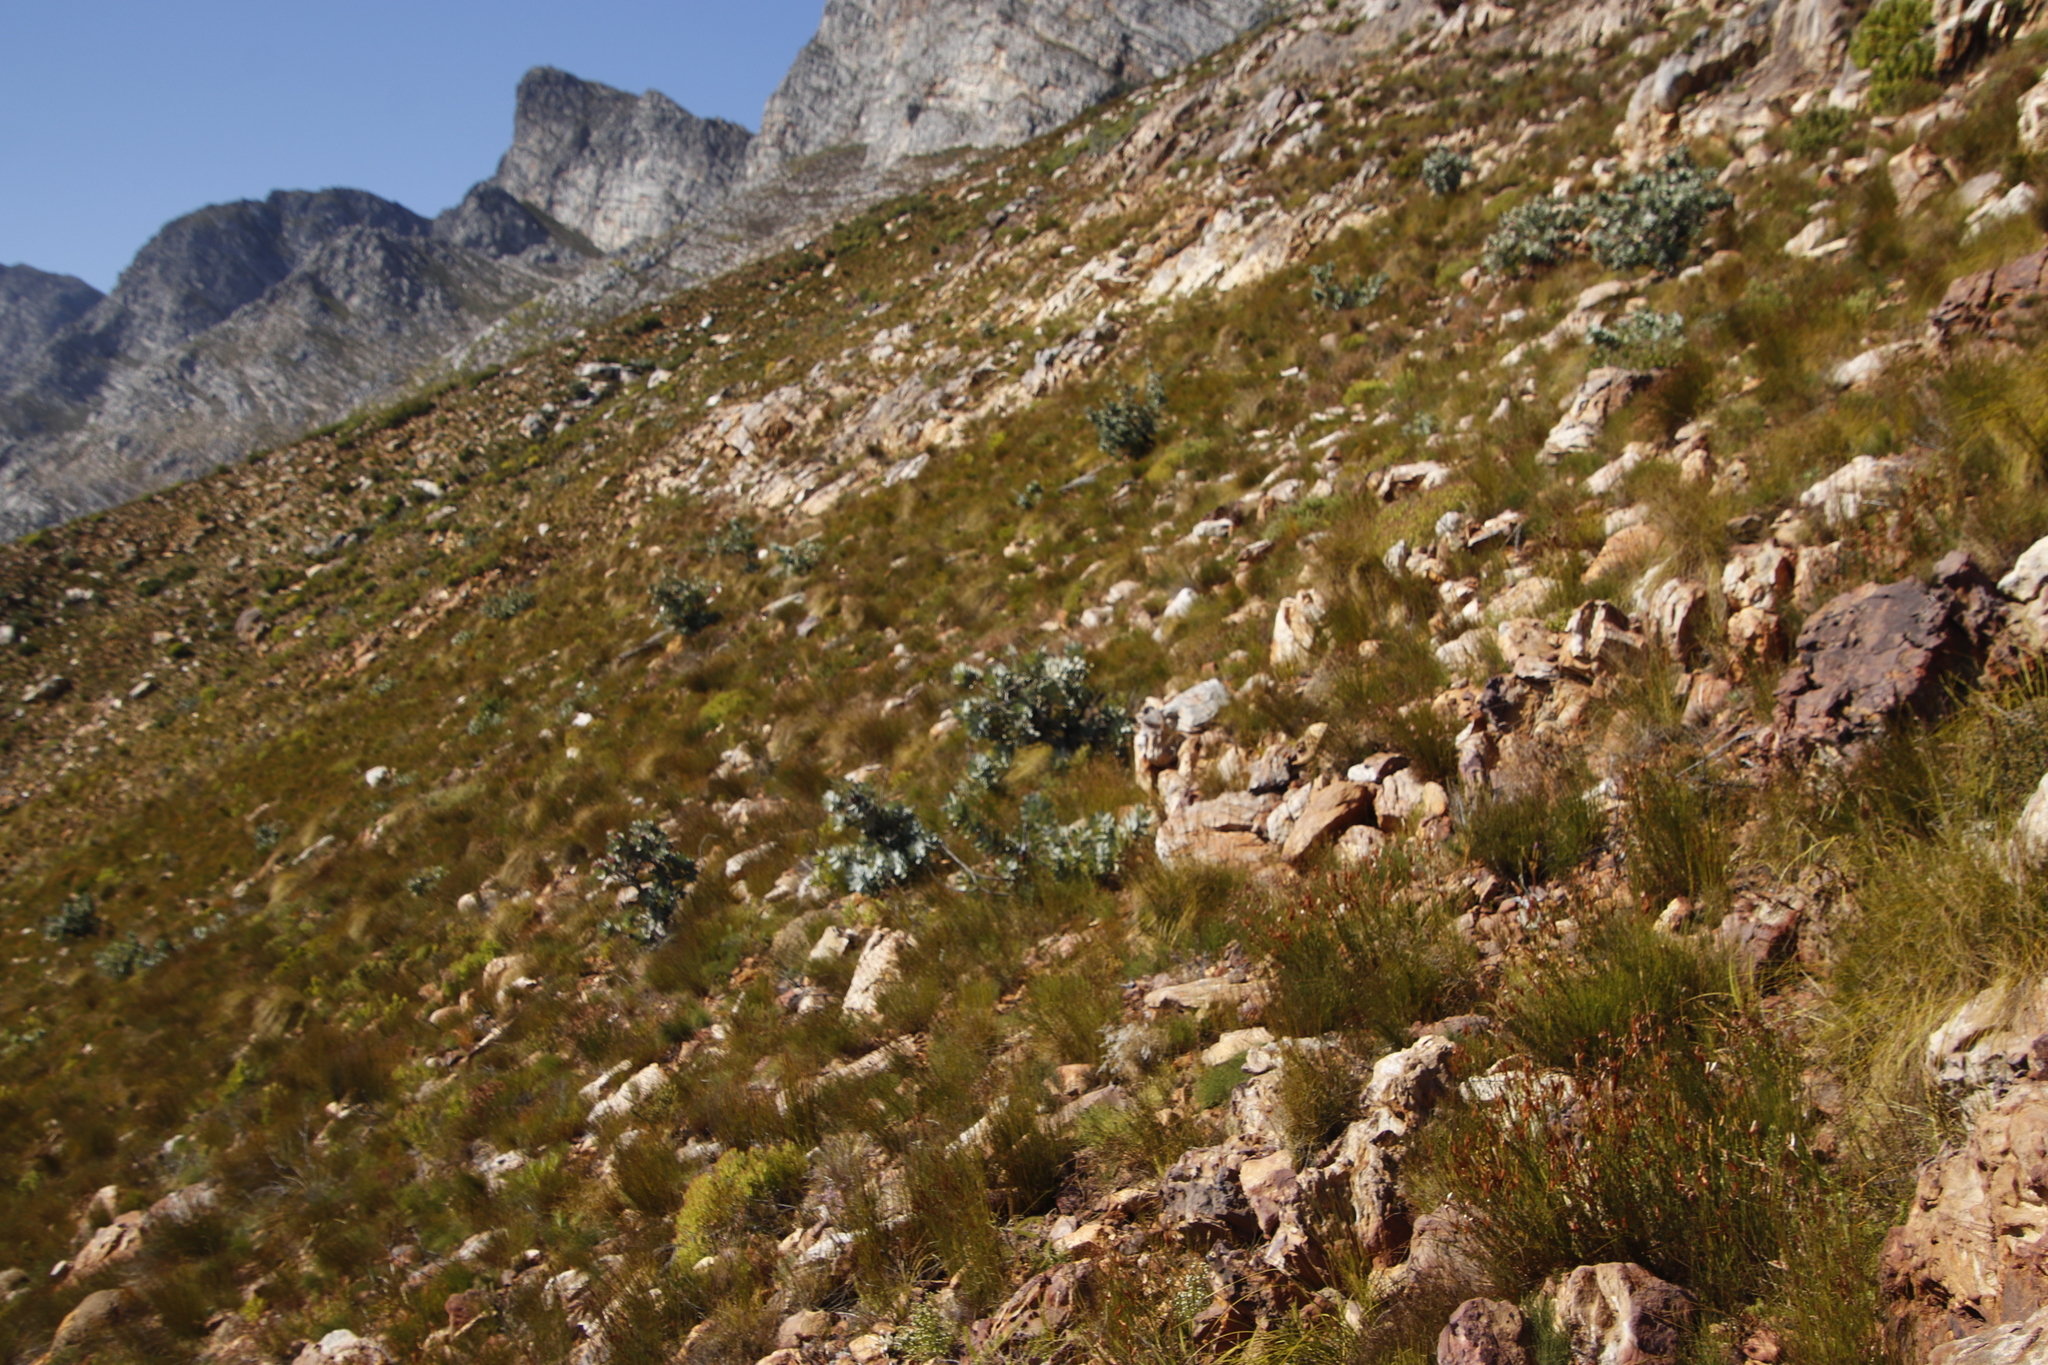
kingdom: Plantae
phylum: Tracheophyta
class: Magnoliopsida
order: Proteales
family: Proteaceae
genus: Protea
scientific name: Protea nitida
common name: Tree protea
